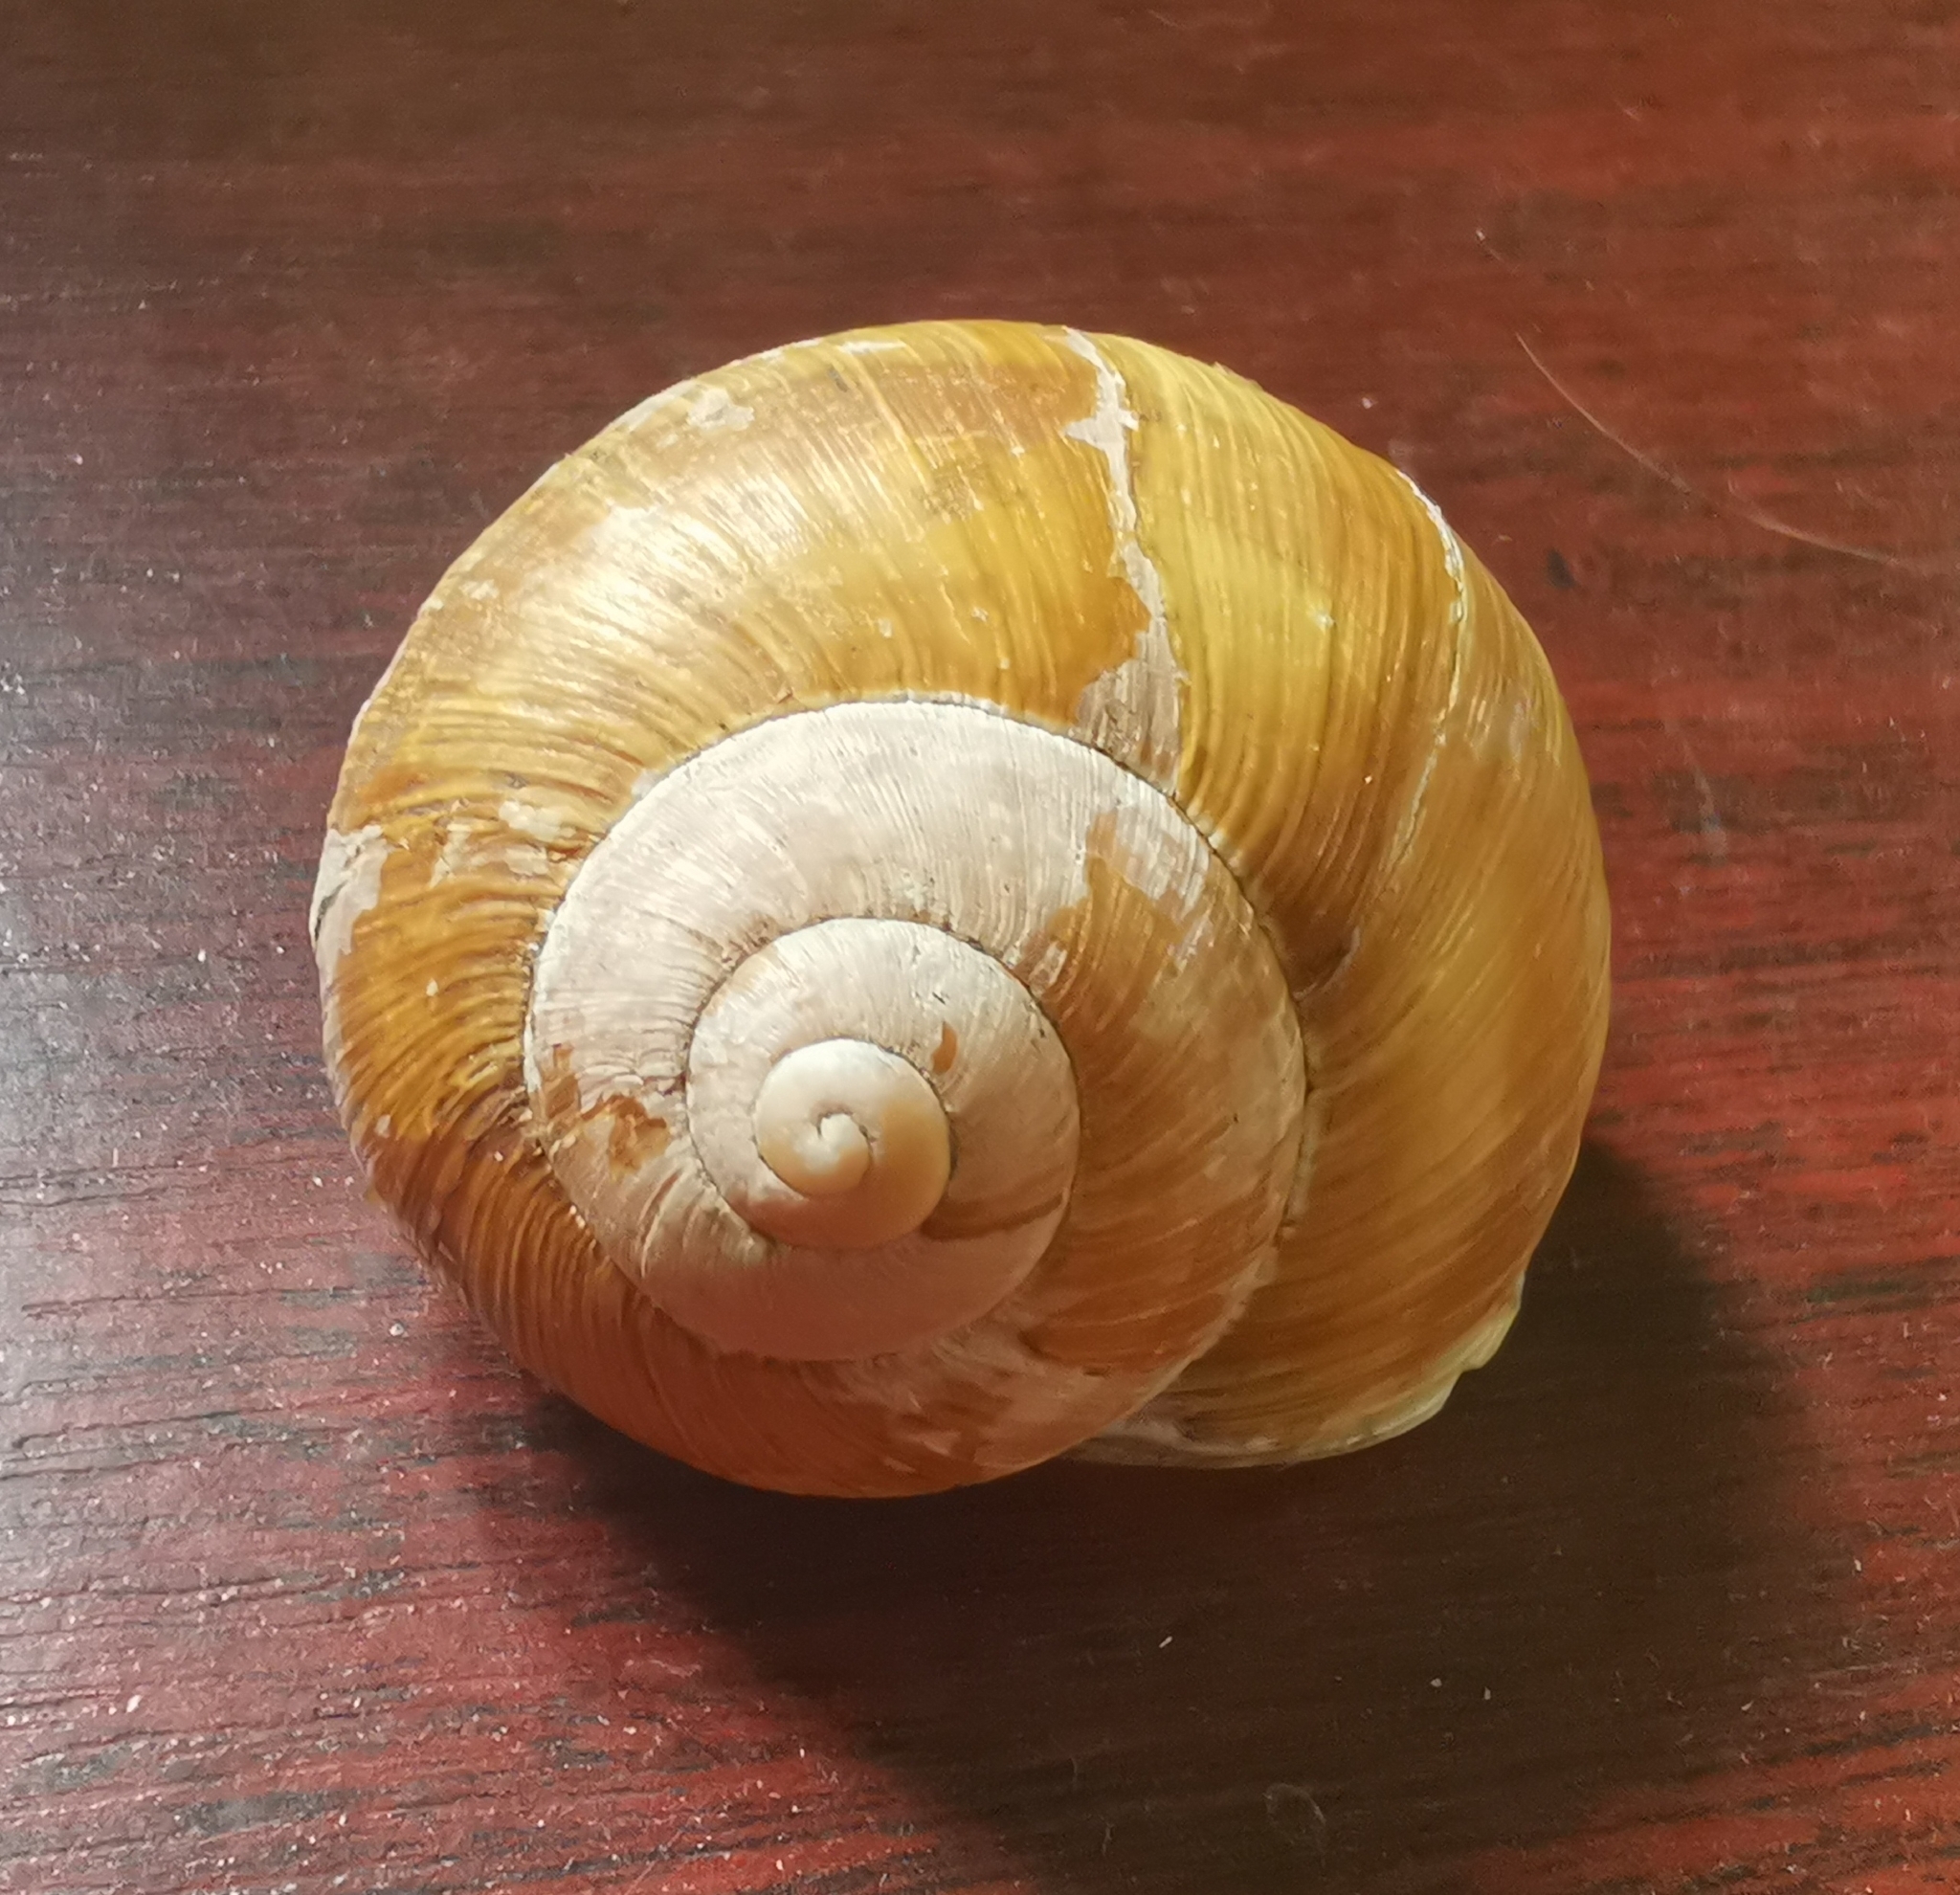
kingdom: Animalia
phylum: Mollusca
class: Gastropoda
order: Stylommatophora
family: Helicidae
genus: Helix
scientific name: Helix pomatia
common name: Roman snail
